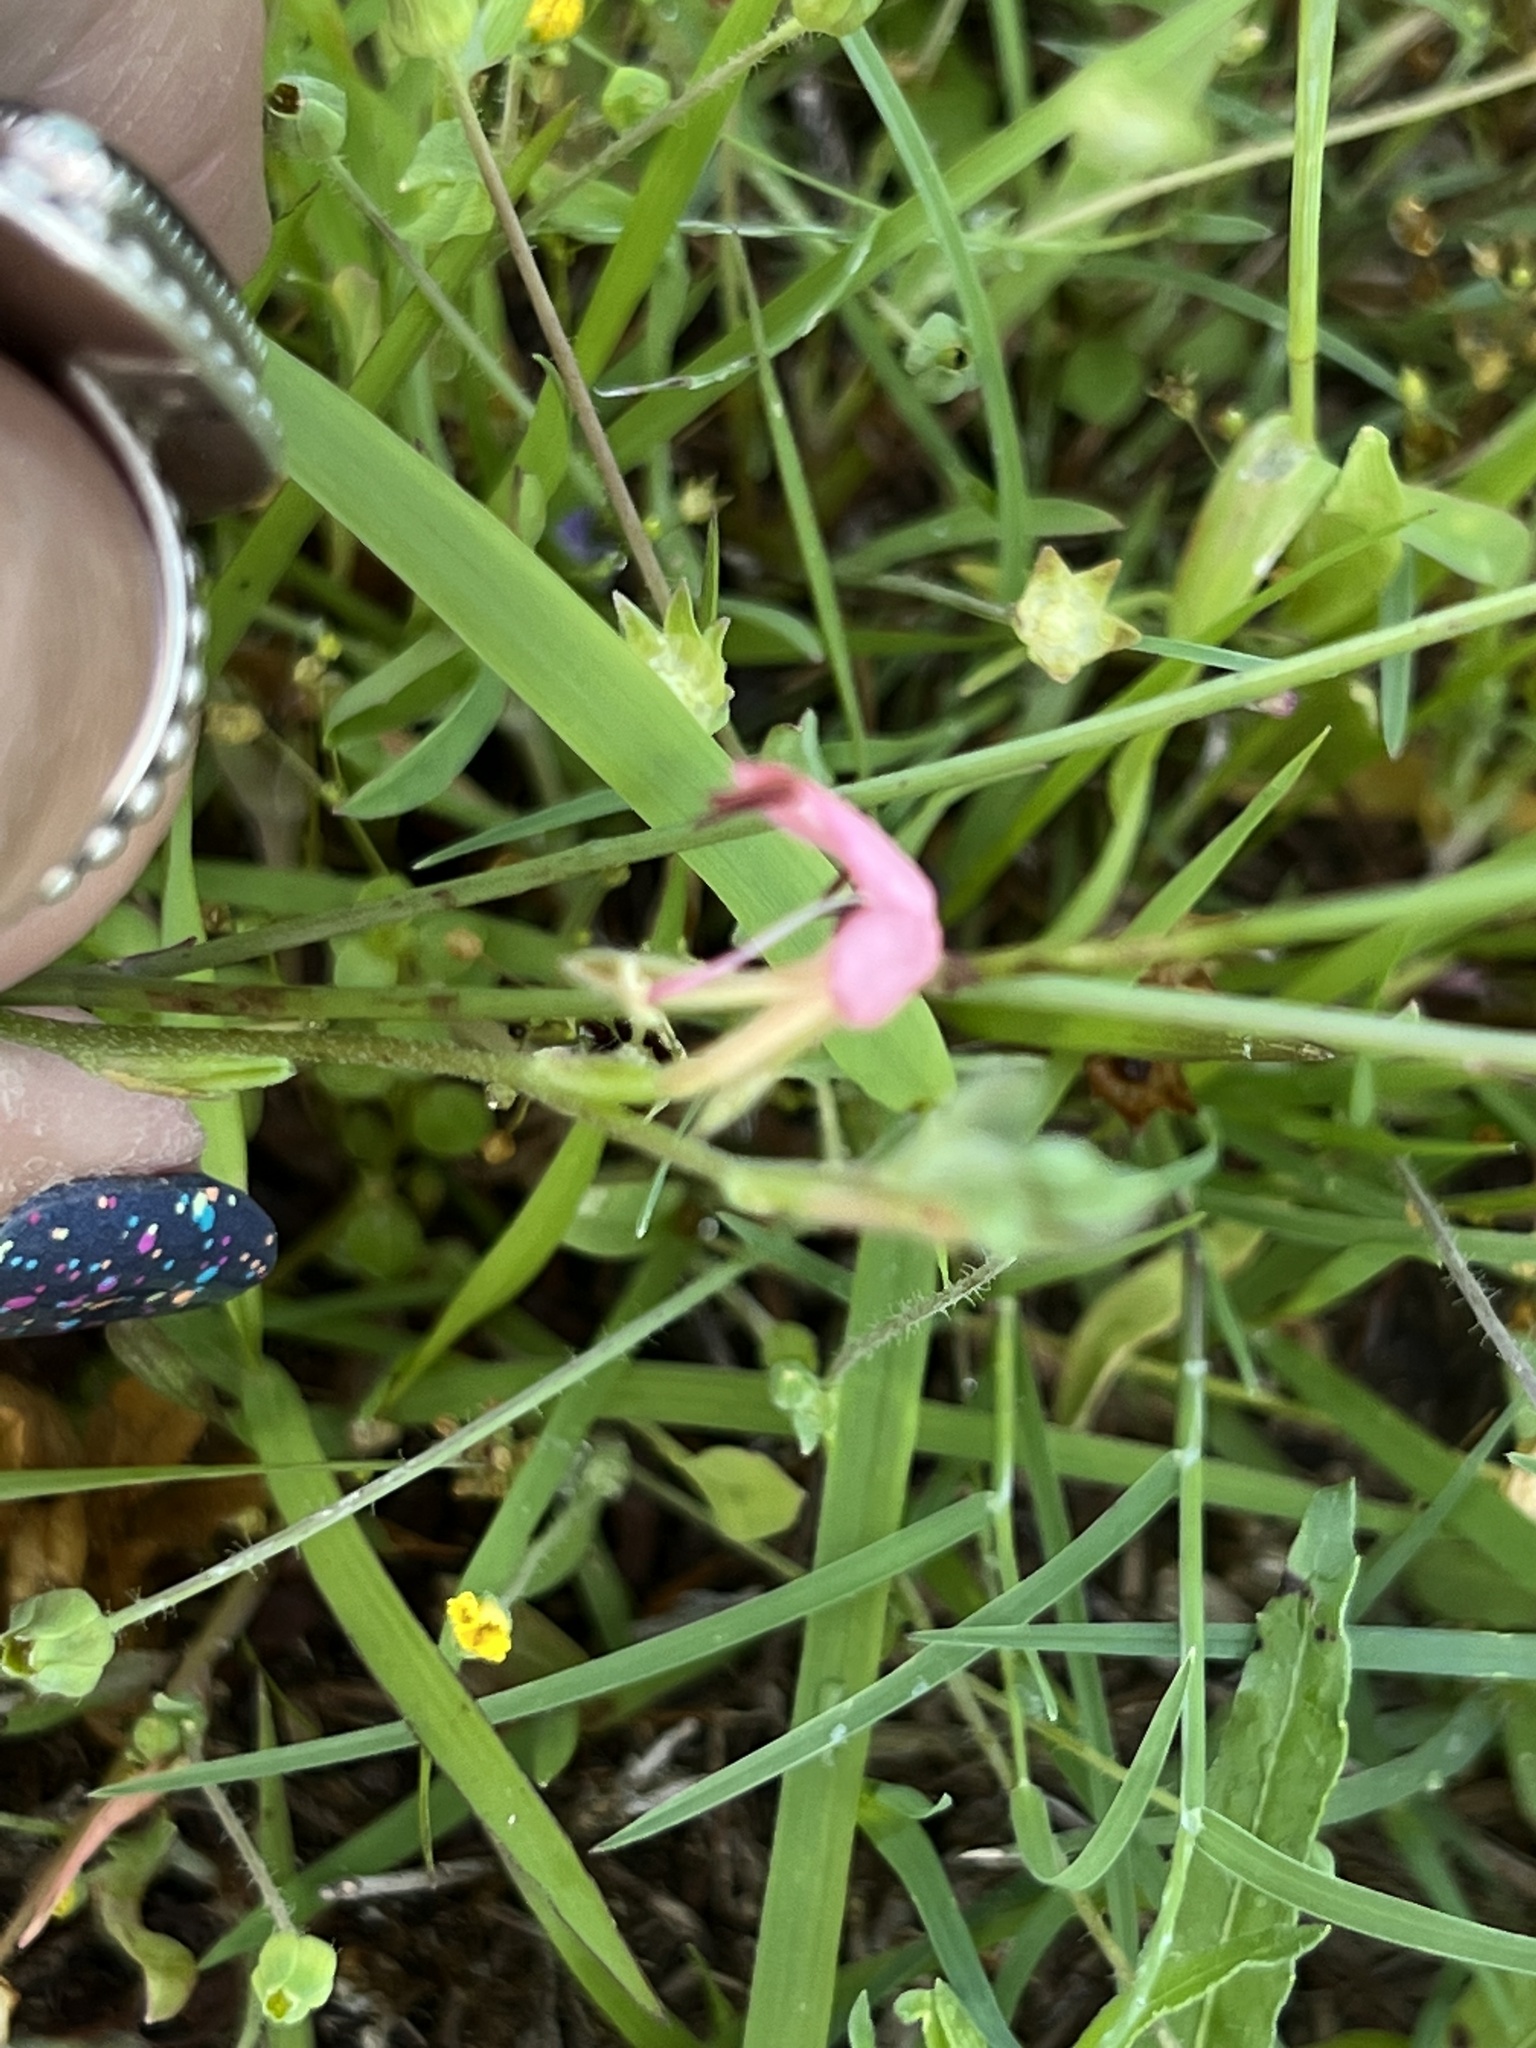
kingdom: Plantae
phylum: Tracheophyta
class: Magnoliopsida
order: Myrtales
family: Onagraceae
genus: Oenothera
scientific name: Oenothera suffulta
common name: Kisses
